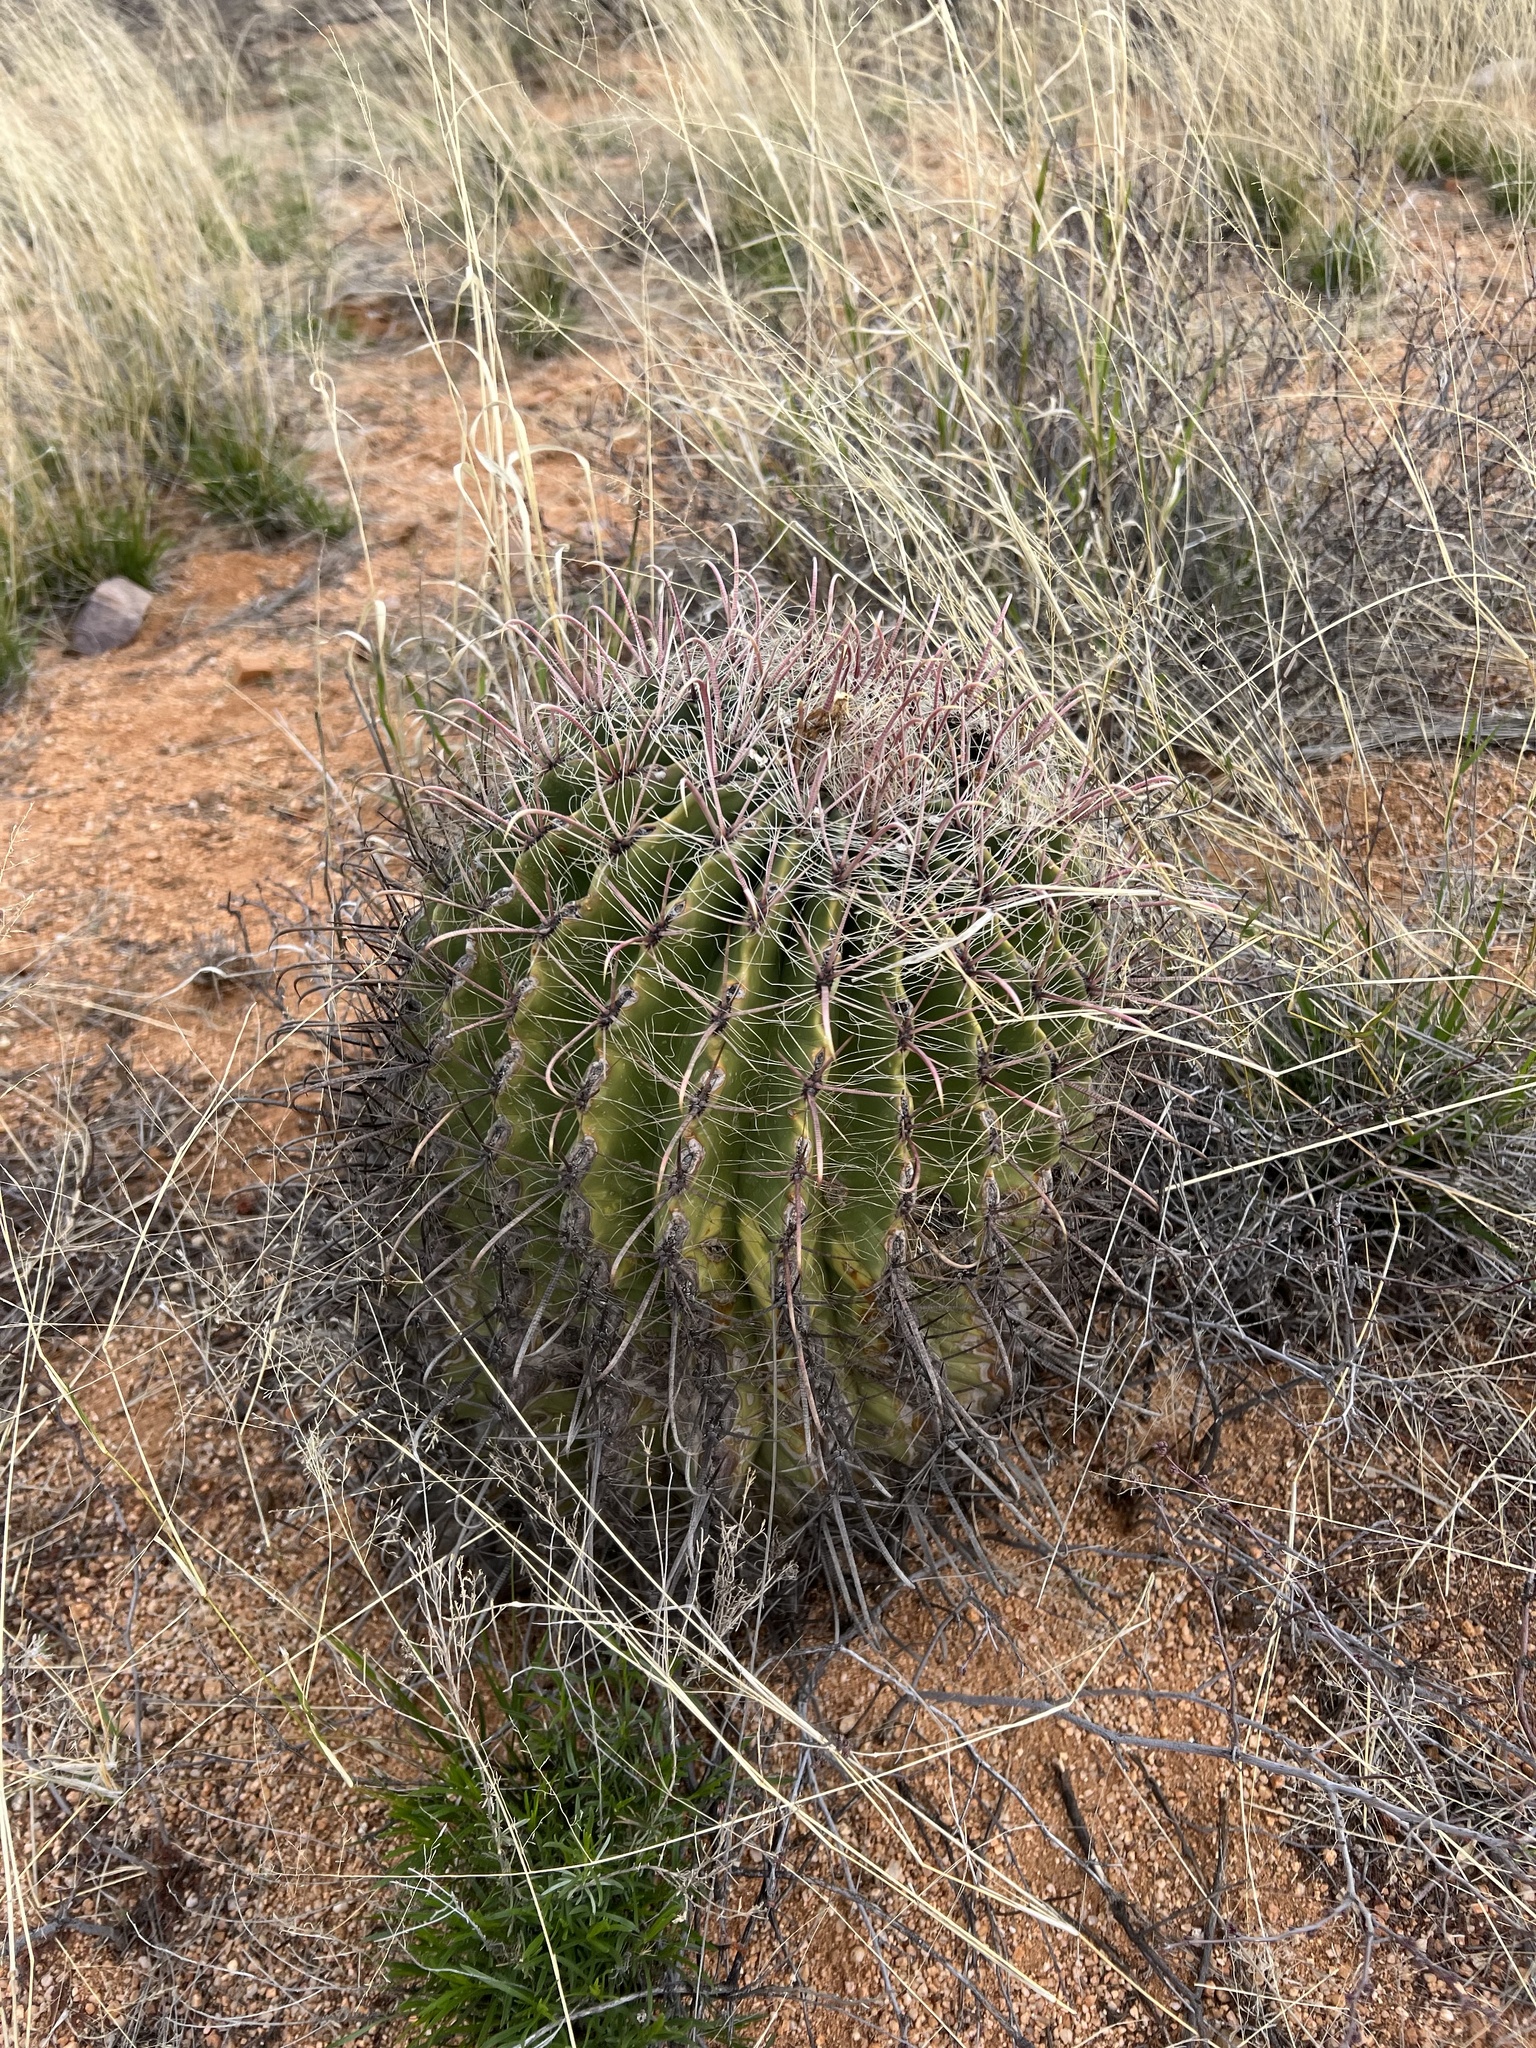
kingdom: Plantae
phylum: Tracheophyta
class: Magnoliopsida
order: Caryophyllales
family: Cactaceae
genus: Ferocactus
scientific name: Ferocactus wislizeni
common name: Candy barrel cactus
